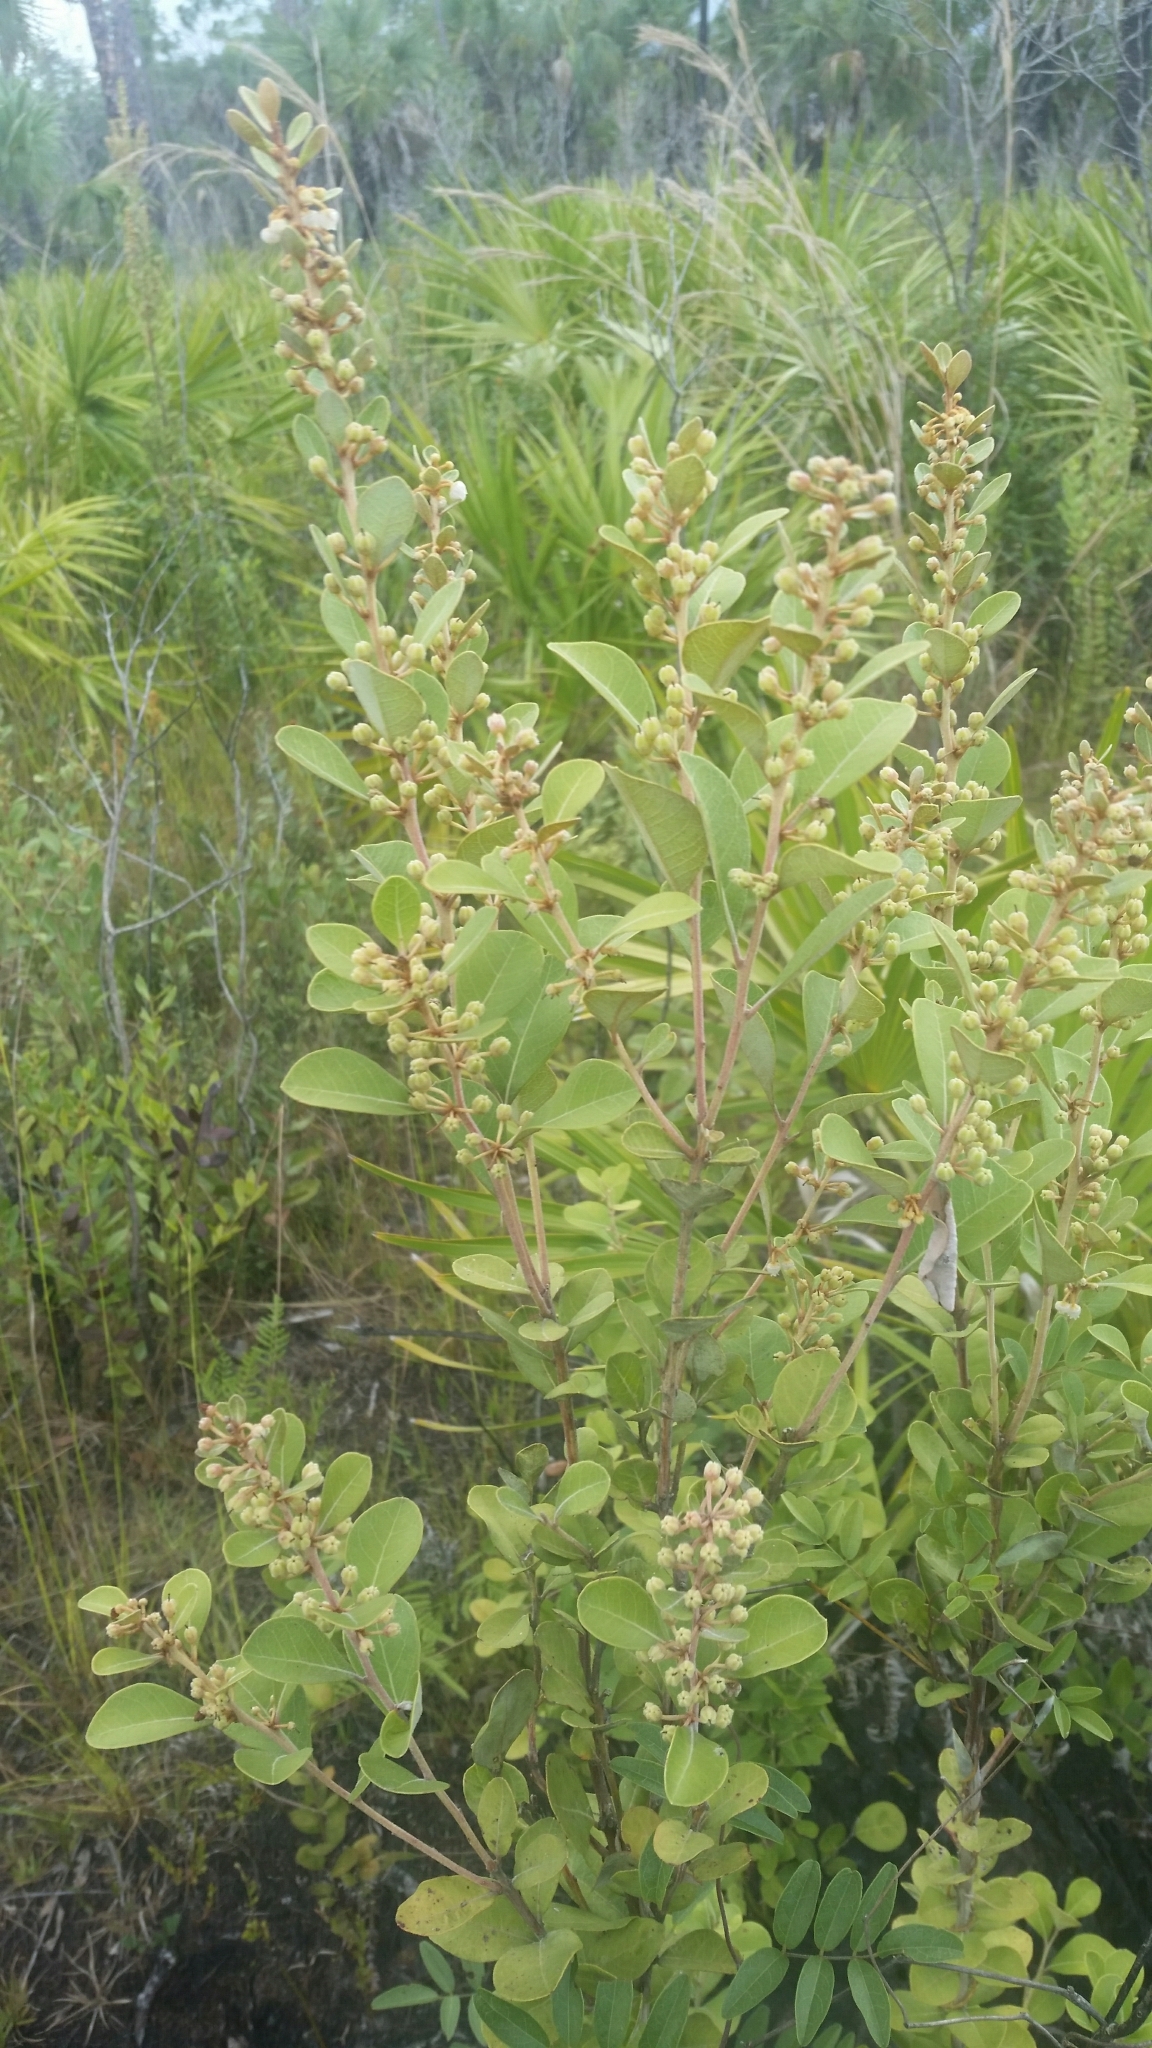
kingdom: Plantae
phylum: Tracheophyta
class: Magnoliopsida
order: Ericales
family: Ericaceae
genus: Lyonia
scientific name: Lyonia fruticosa
